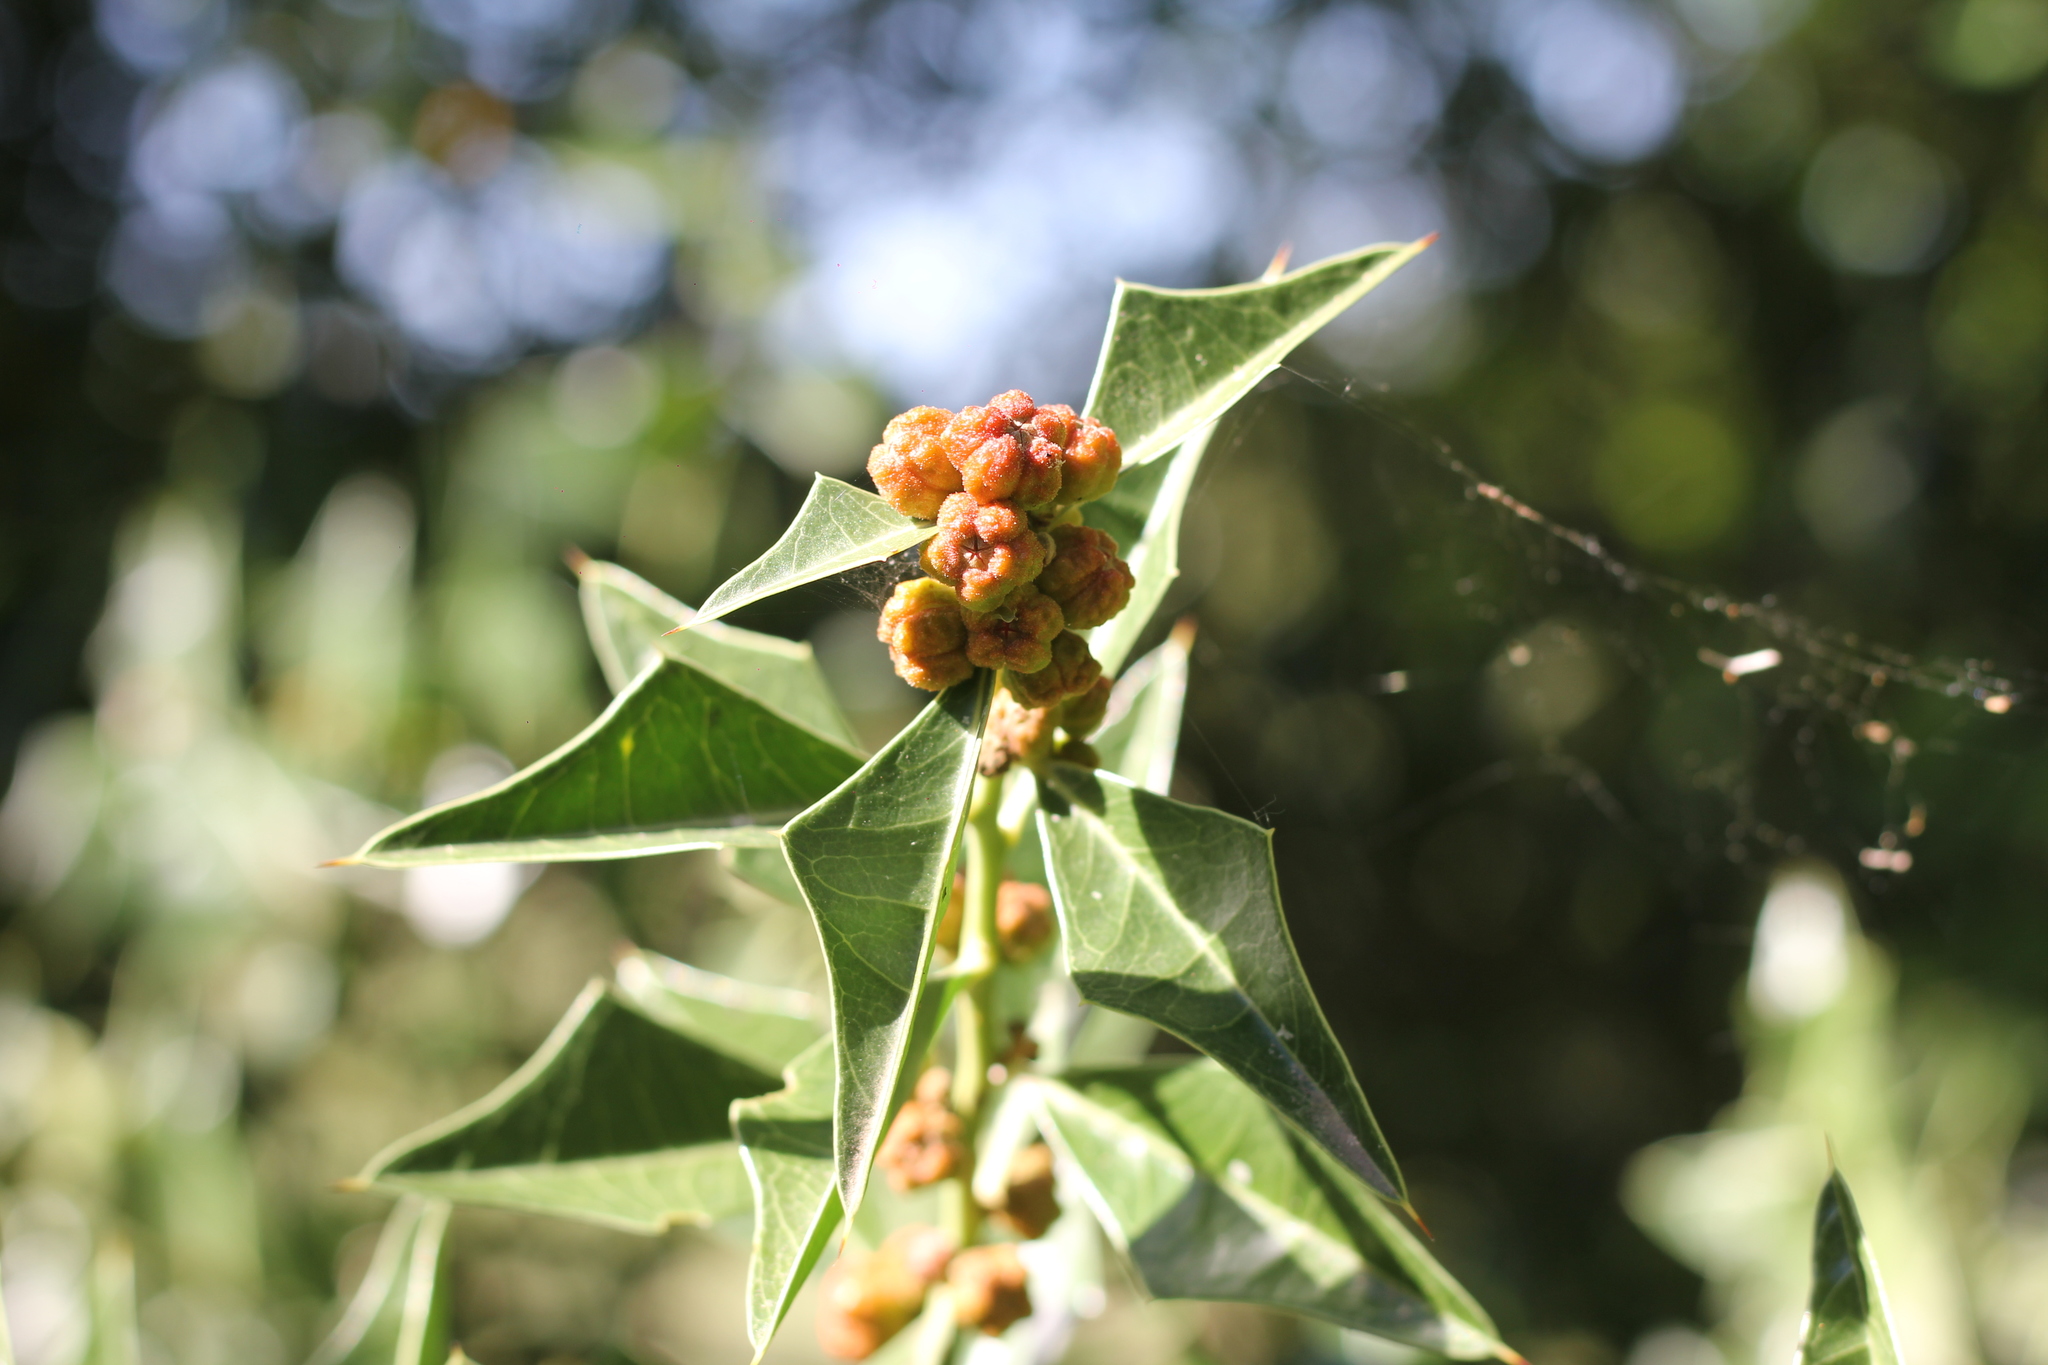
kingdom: Plantae
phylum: Tracheophyta
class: Magnoliopsida
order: Santalales
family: Cervantesiaceae
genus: Jodina
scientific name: Jodina rhombifolia
